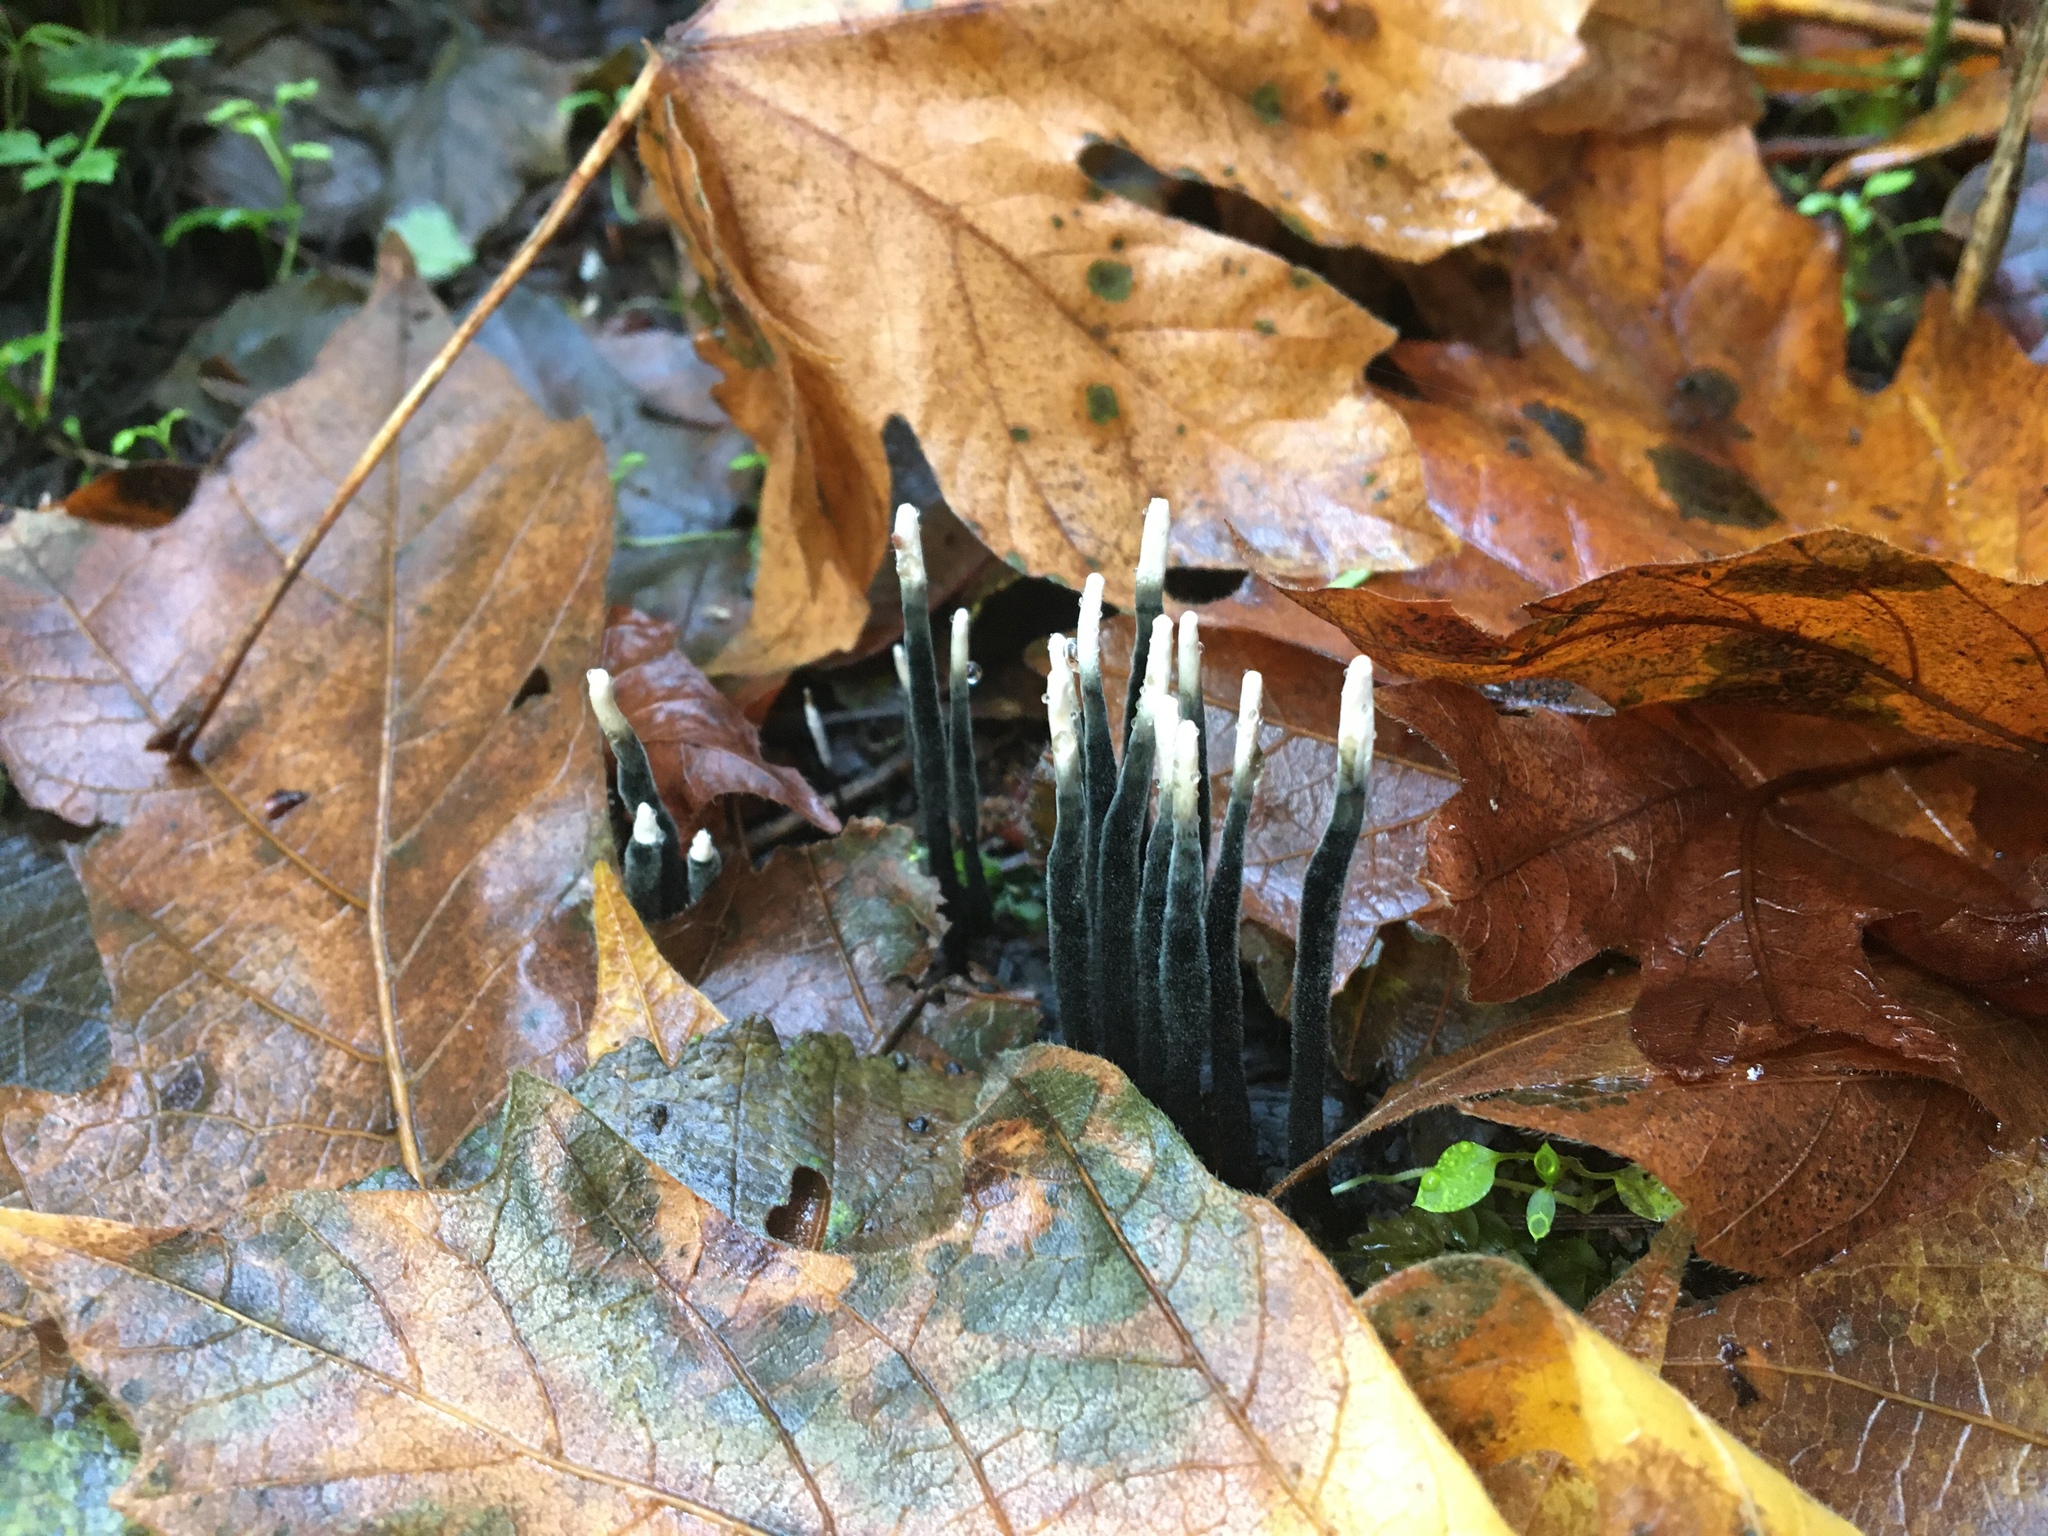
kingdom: Fungi
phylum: Ascomycota
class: Sordariomycetes
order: Xylariales
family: Xylariaceae
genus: Xylaria
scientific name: Xylaria hypoxylon
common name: Candle-snuff fungus
